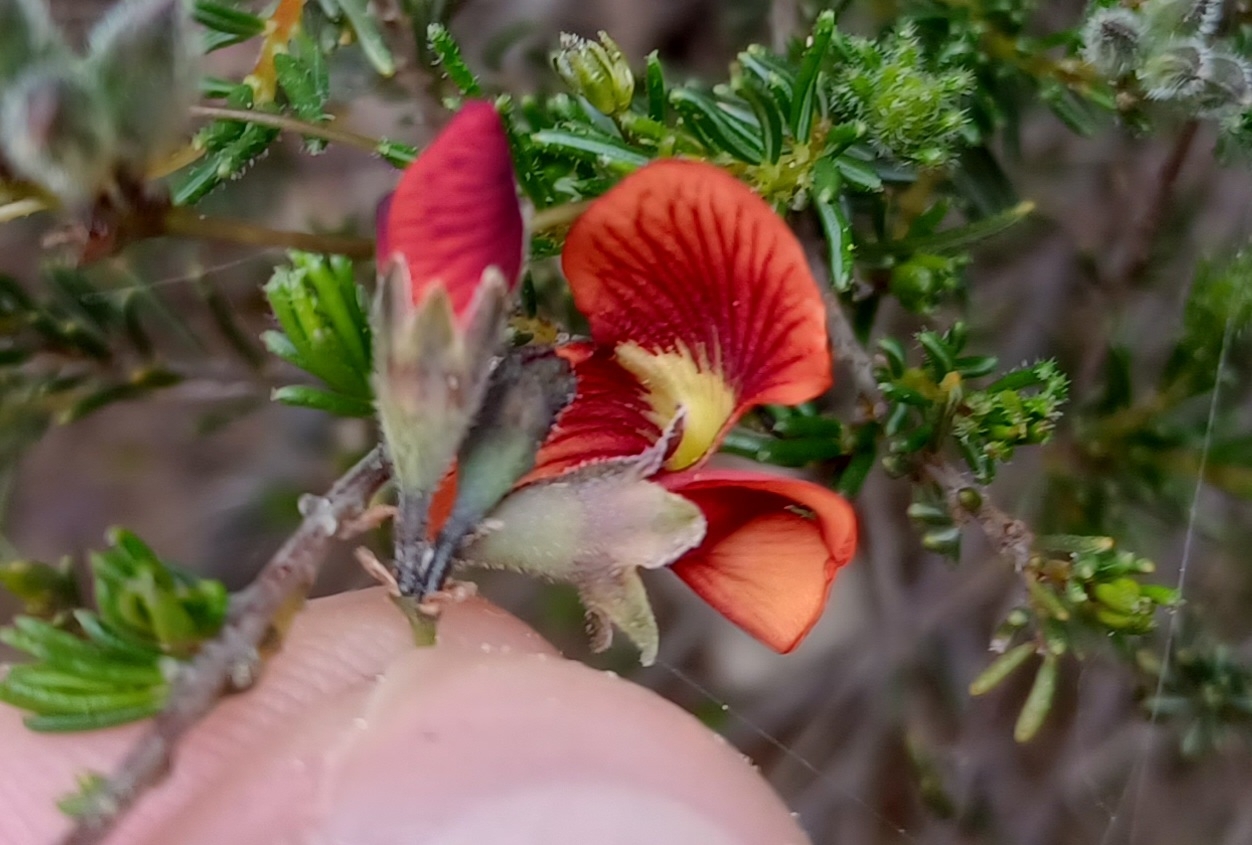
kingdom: Plantae
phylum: Tracheophyta
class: Magnoliopsida
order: Fabales
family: Fabaceae
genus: Dillwynia
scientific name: Dillwynia hispida
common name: Red parrot-pea
